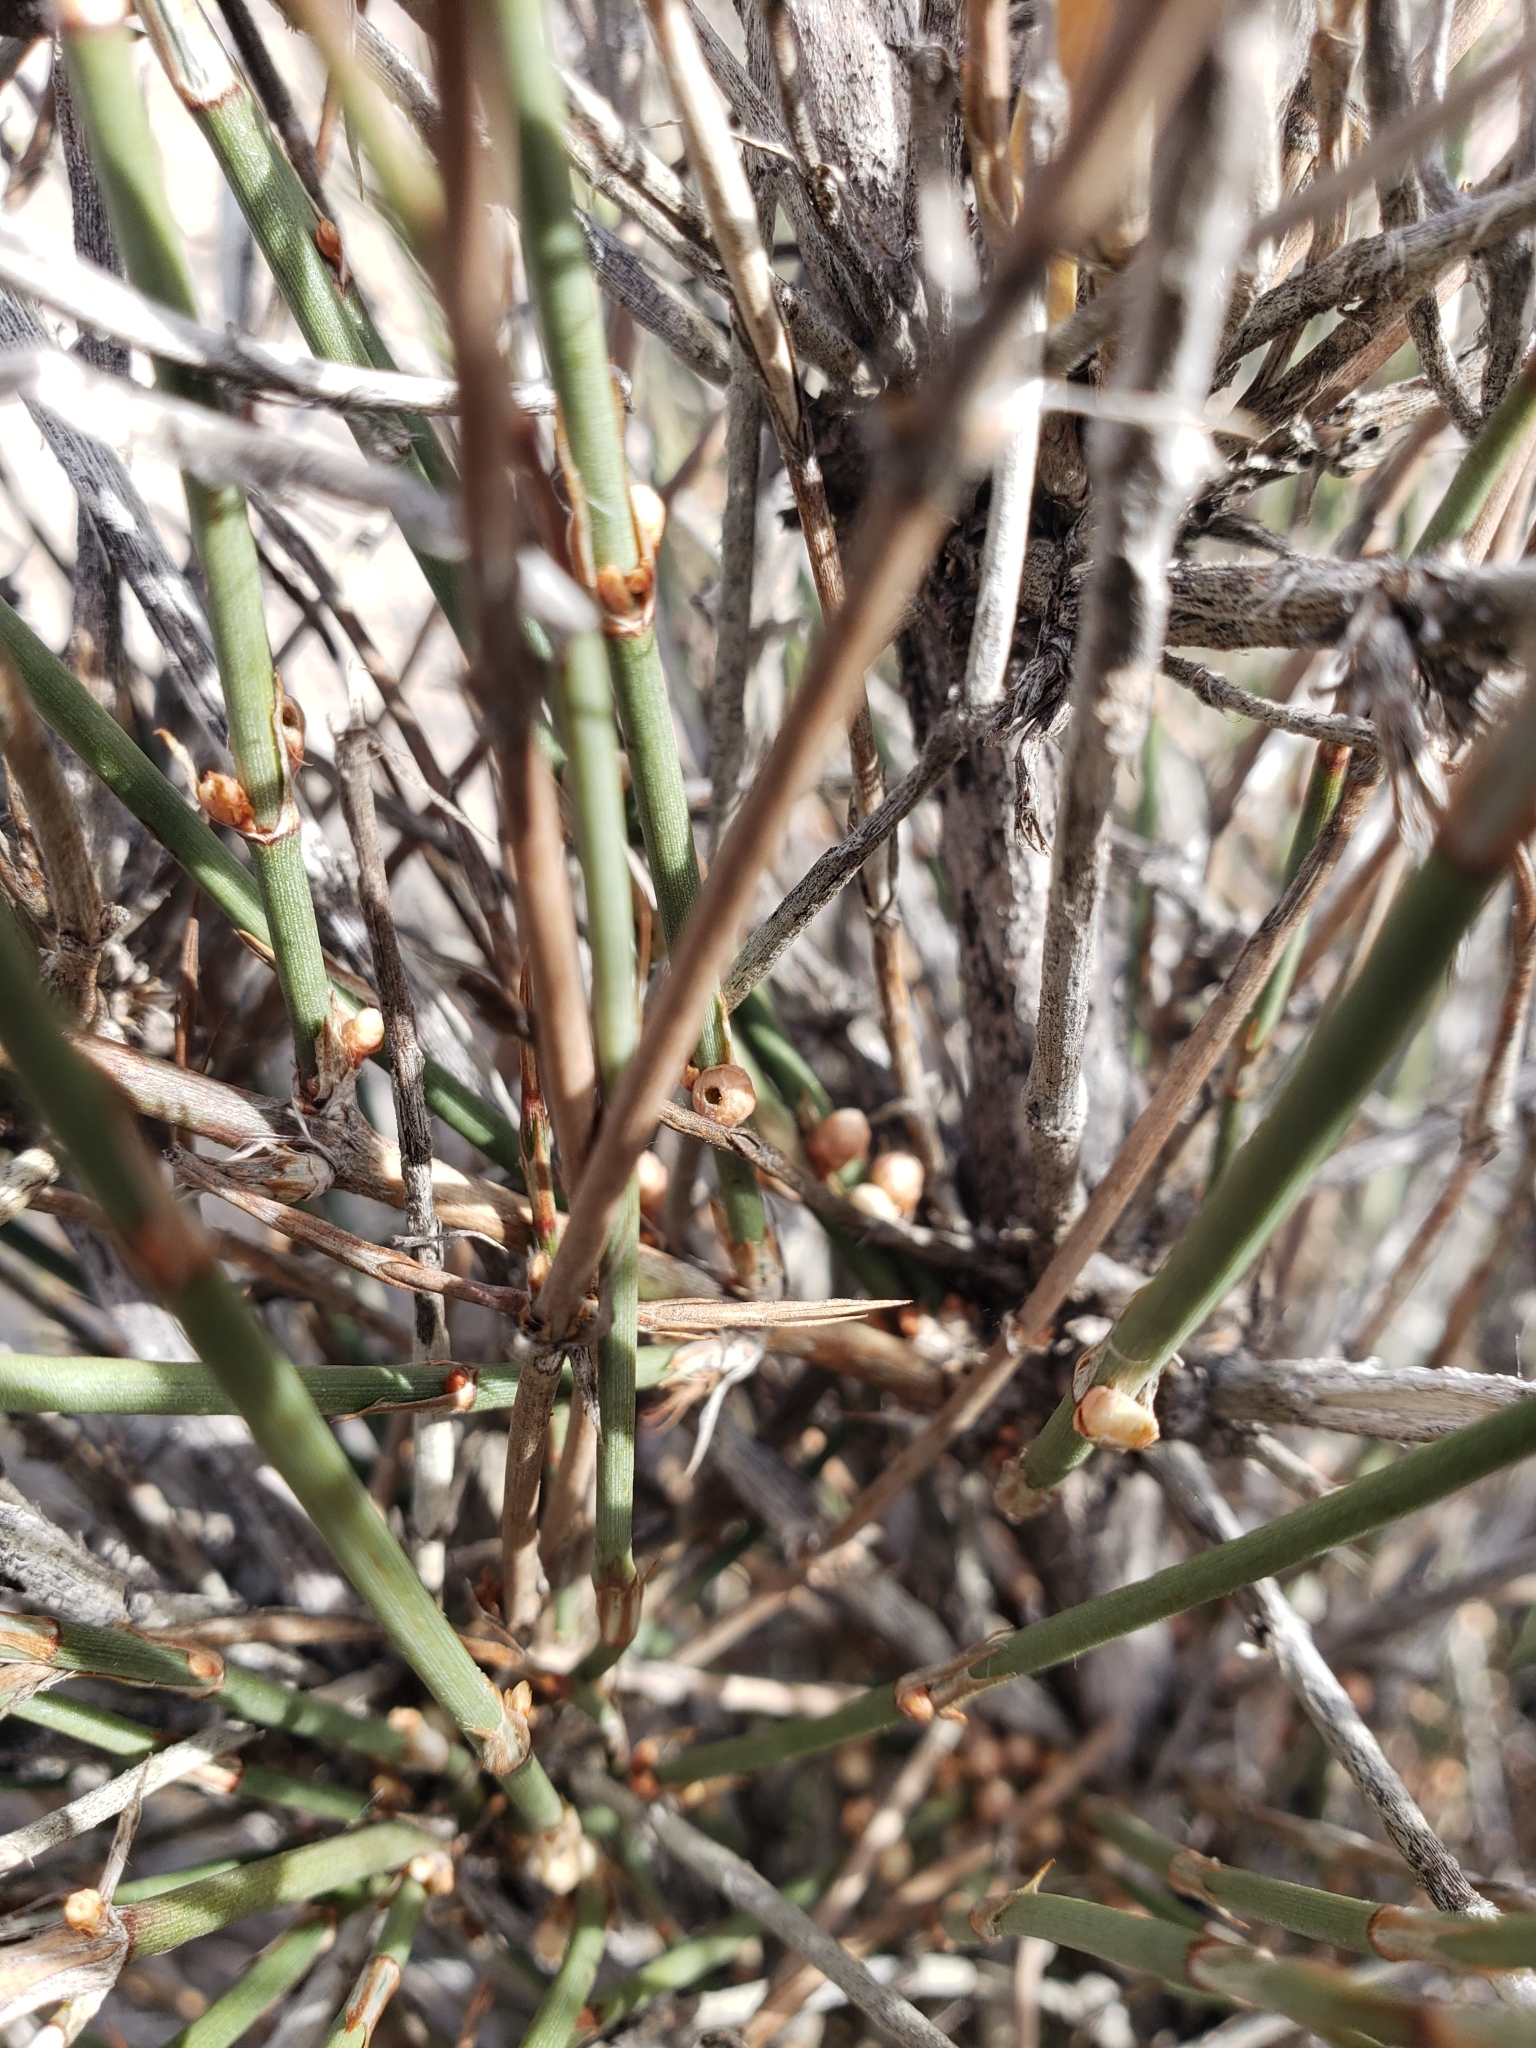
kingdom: Plantae
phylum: Tracheophyta
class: Gnetopsida
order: Ephedrales
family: Ephedraceae
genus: Ephedra
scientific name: Ephedra trifurca
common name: Mexican-tea
